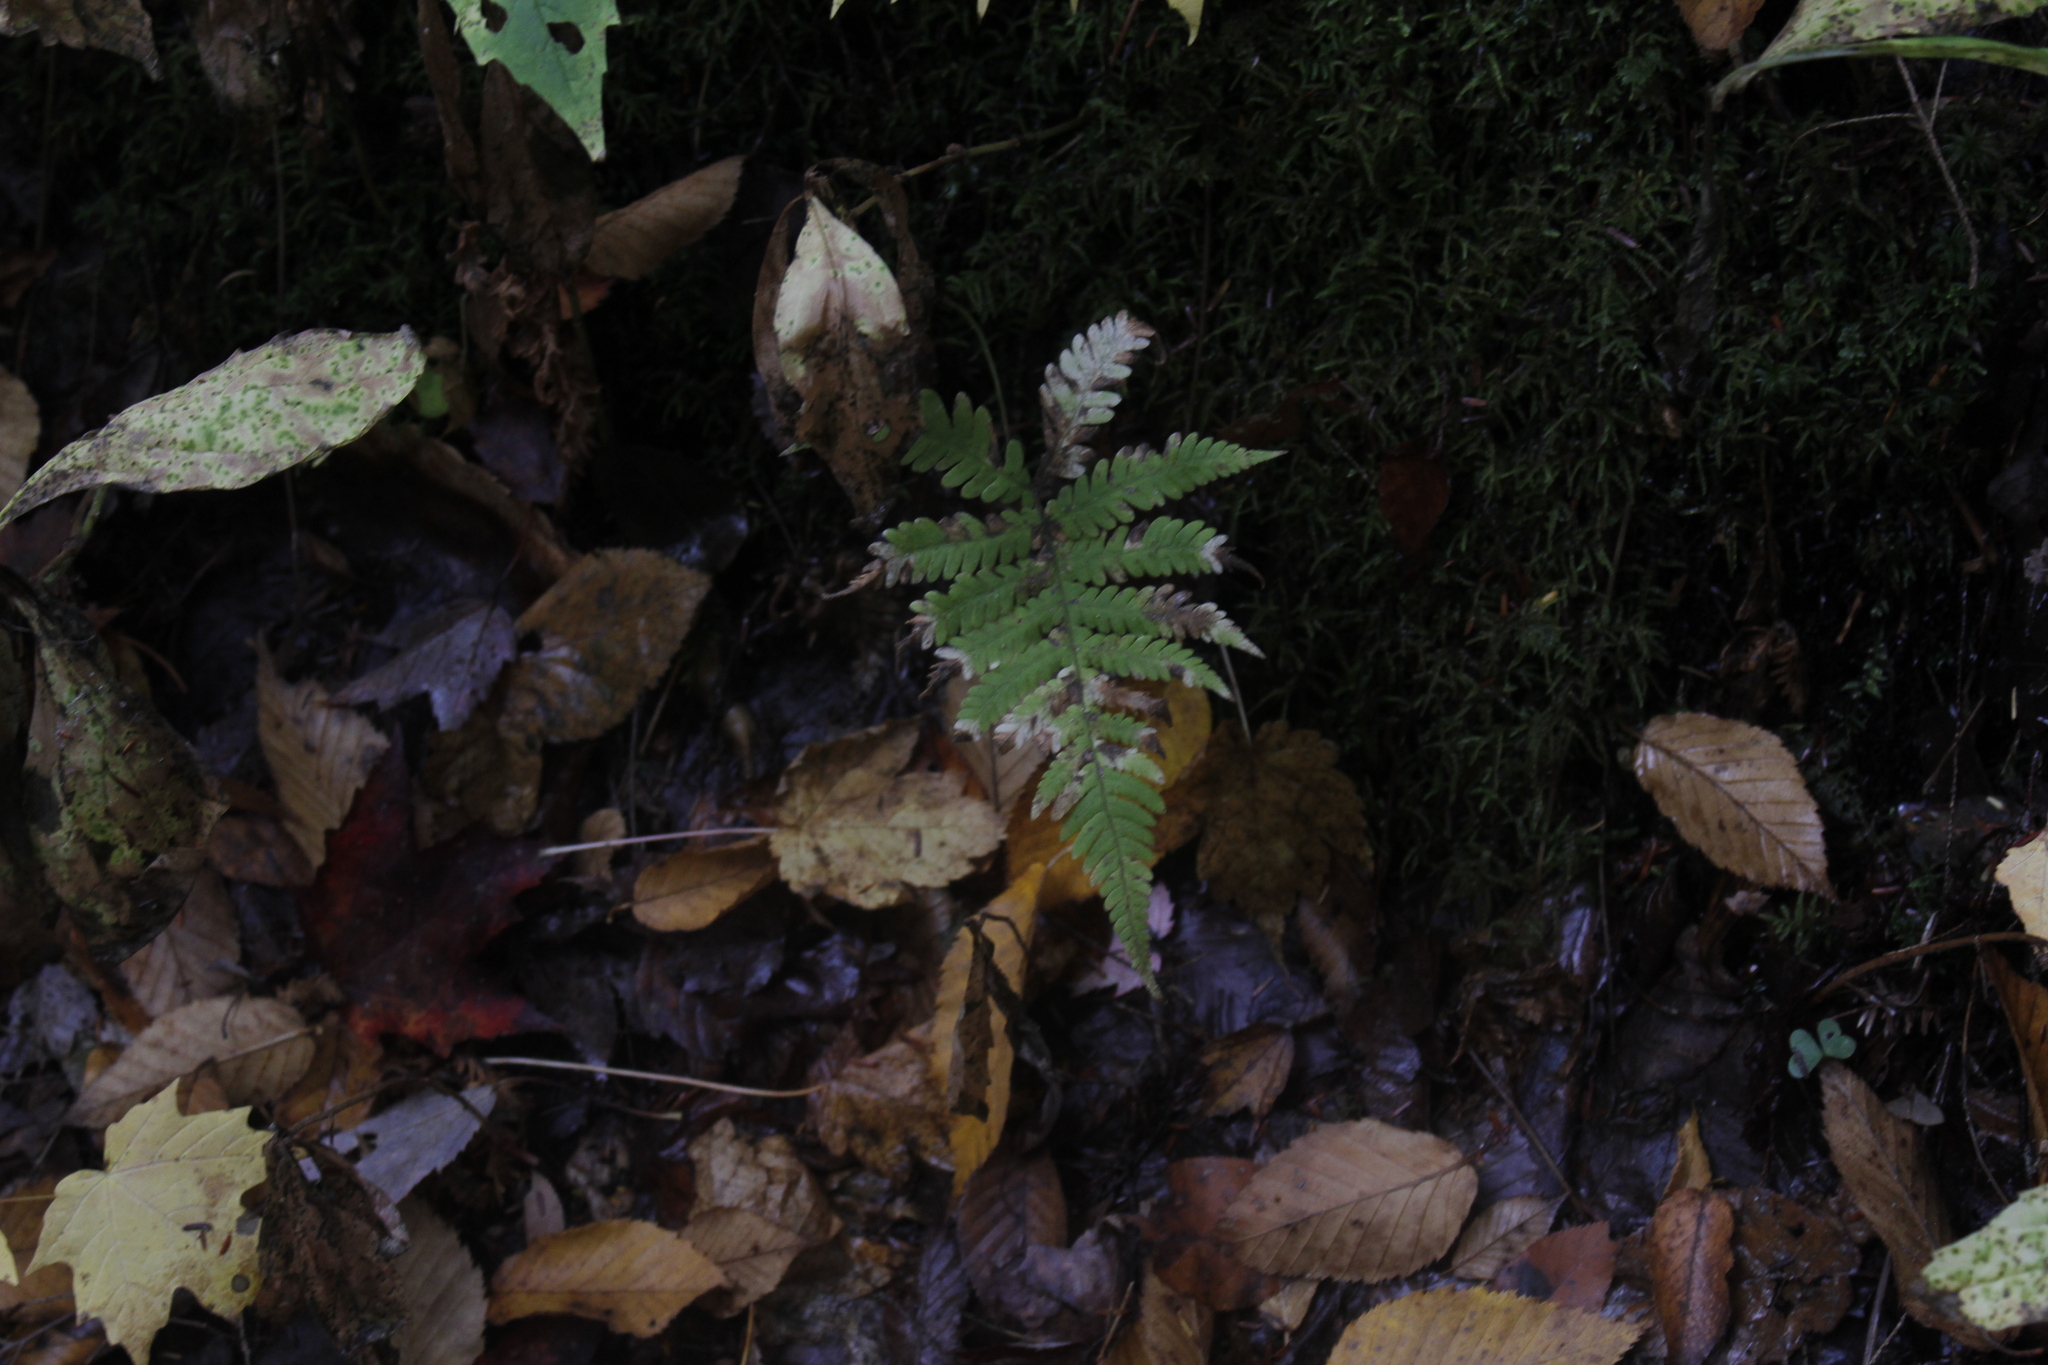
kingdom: Plantae
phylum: Tracheophyta
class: Polypodiopsida
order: Polypodiales
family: Thelypteridaceae
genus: Phegopteris
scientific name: Phegopteris connectilis
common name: Beech fern
